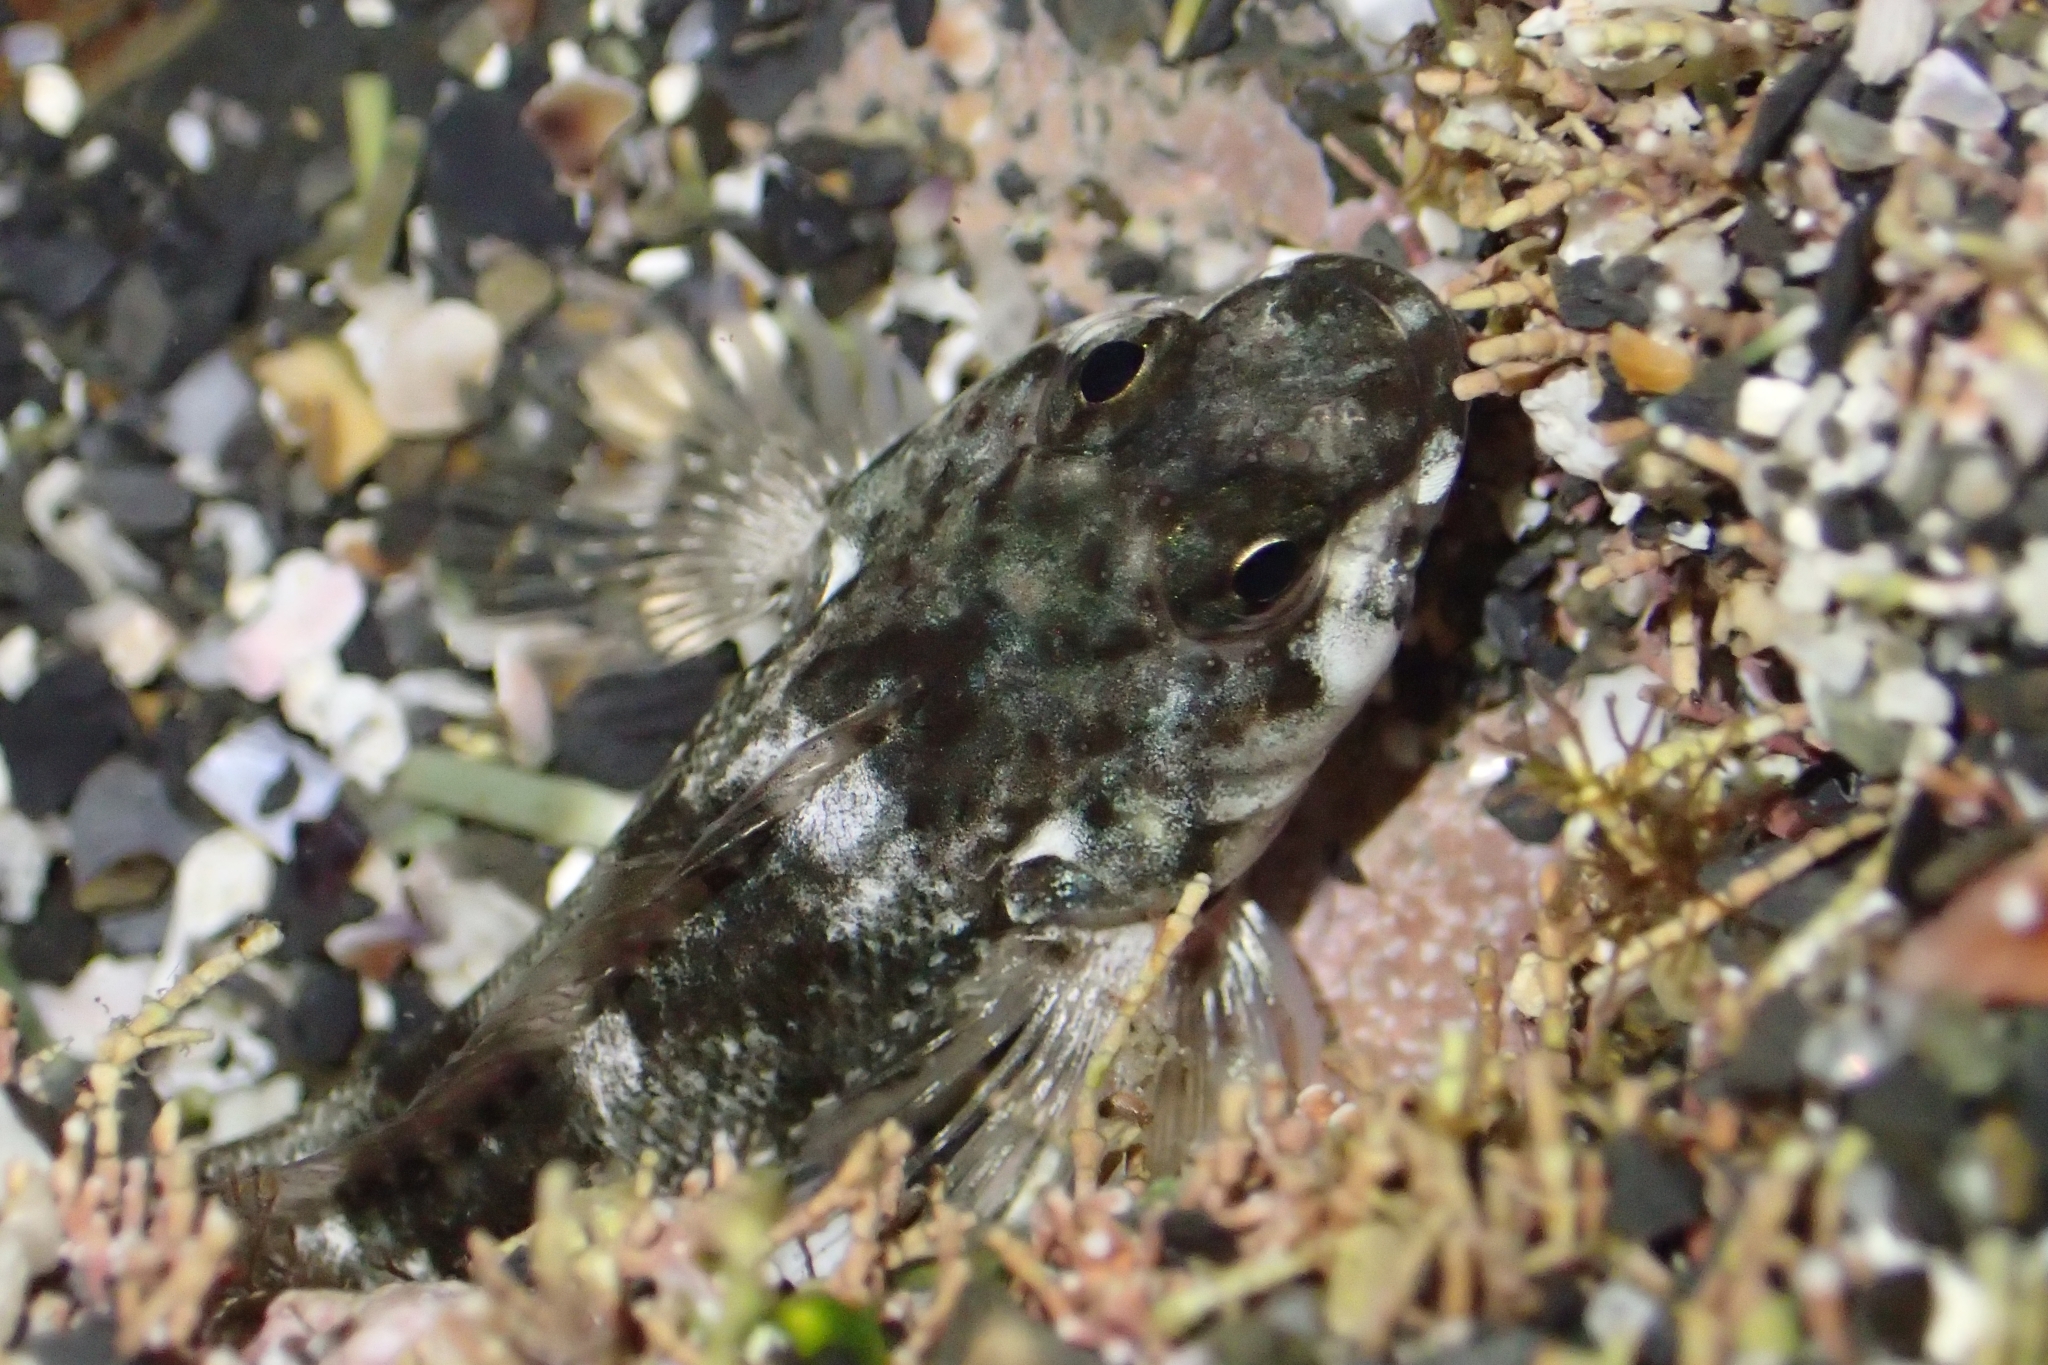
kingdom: Animalia
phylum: Chordata
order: Perciformes
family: Tripterygiidae
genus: Bellapiscis
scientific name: Bellapiscis medius
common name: Twister
